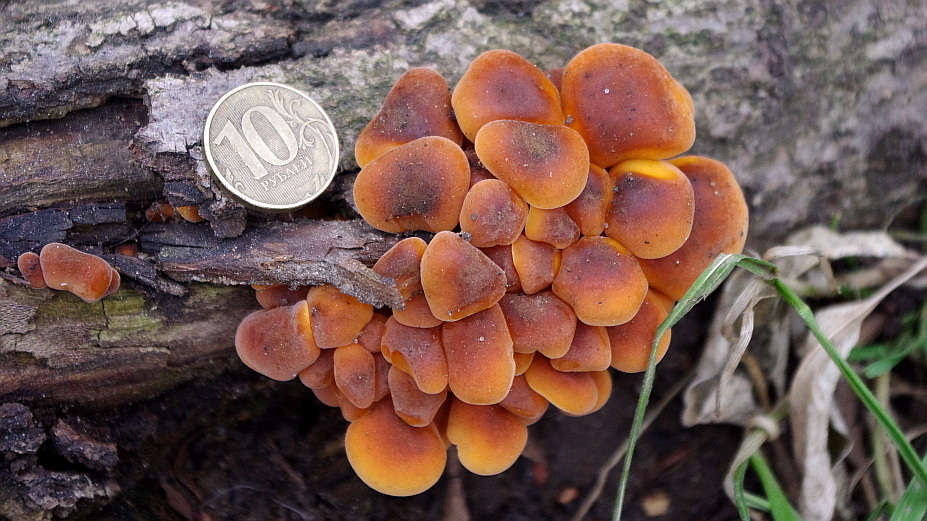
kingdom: Fungi
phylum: Basidiomycota
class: Agaricomycetes
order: Agaricales
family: Physalacriaceae
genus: Flammulina
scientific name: Flammulina
